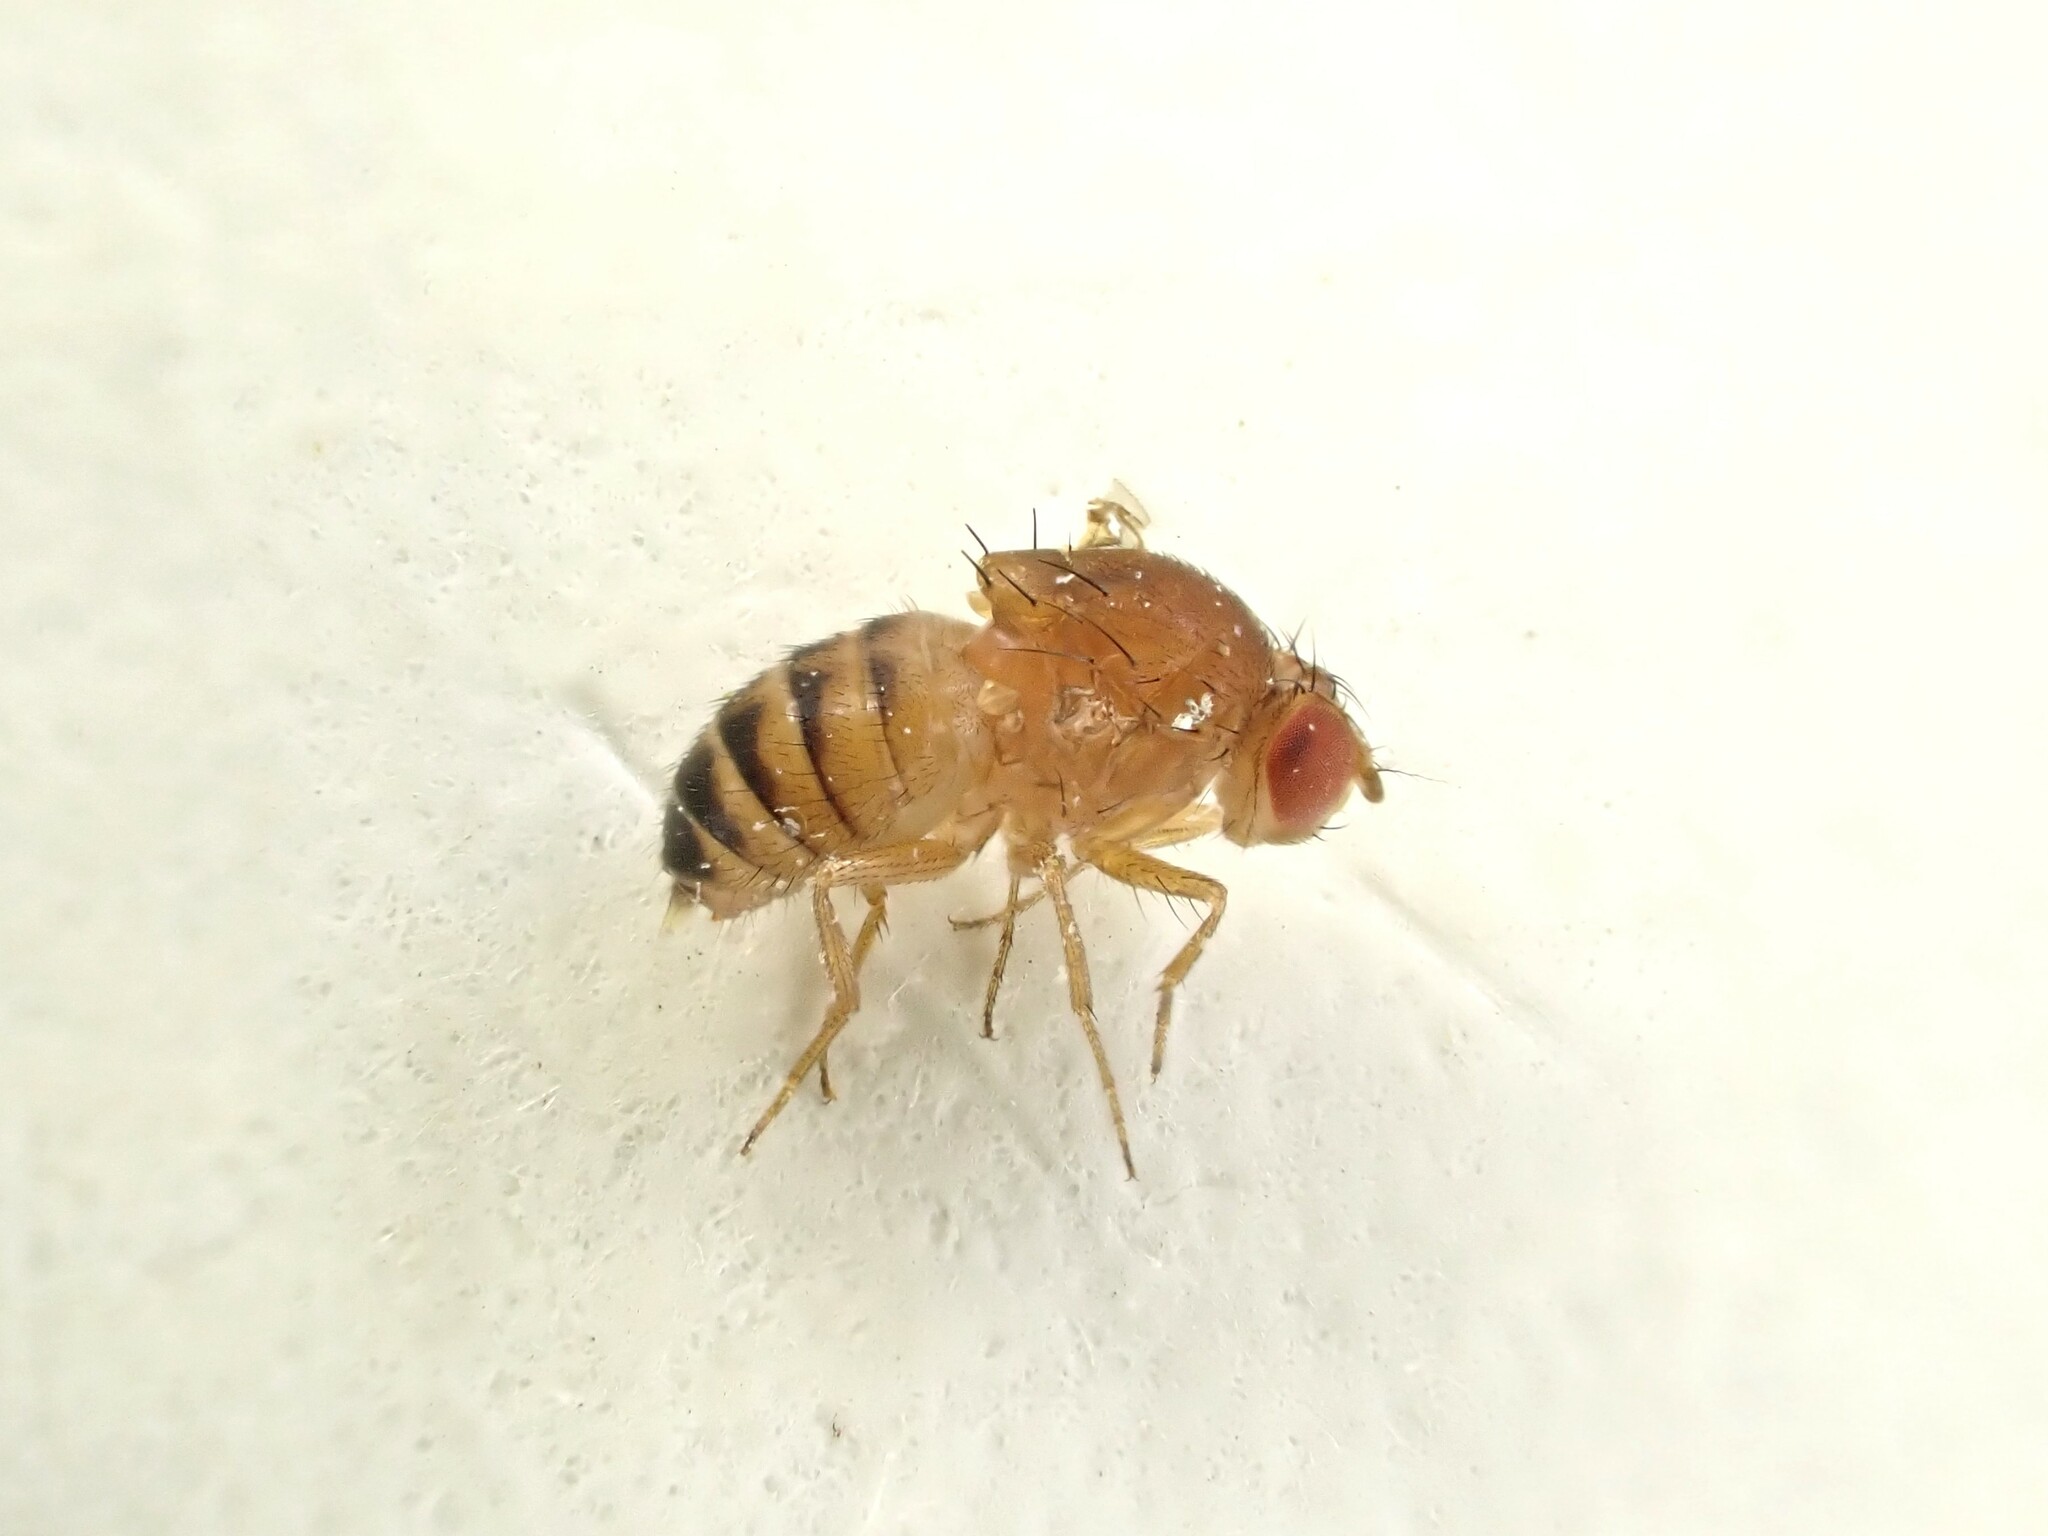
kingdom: Animalia
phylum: Arthropoda
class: Insecta
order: Diptera
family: Drosophilidae
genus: Drosophila
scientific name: Drosophila immigrans
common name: Pomace fly
